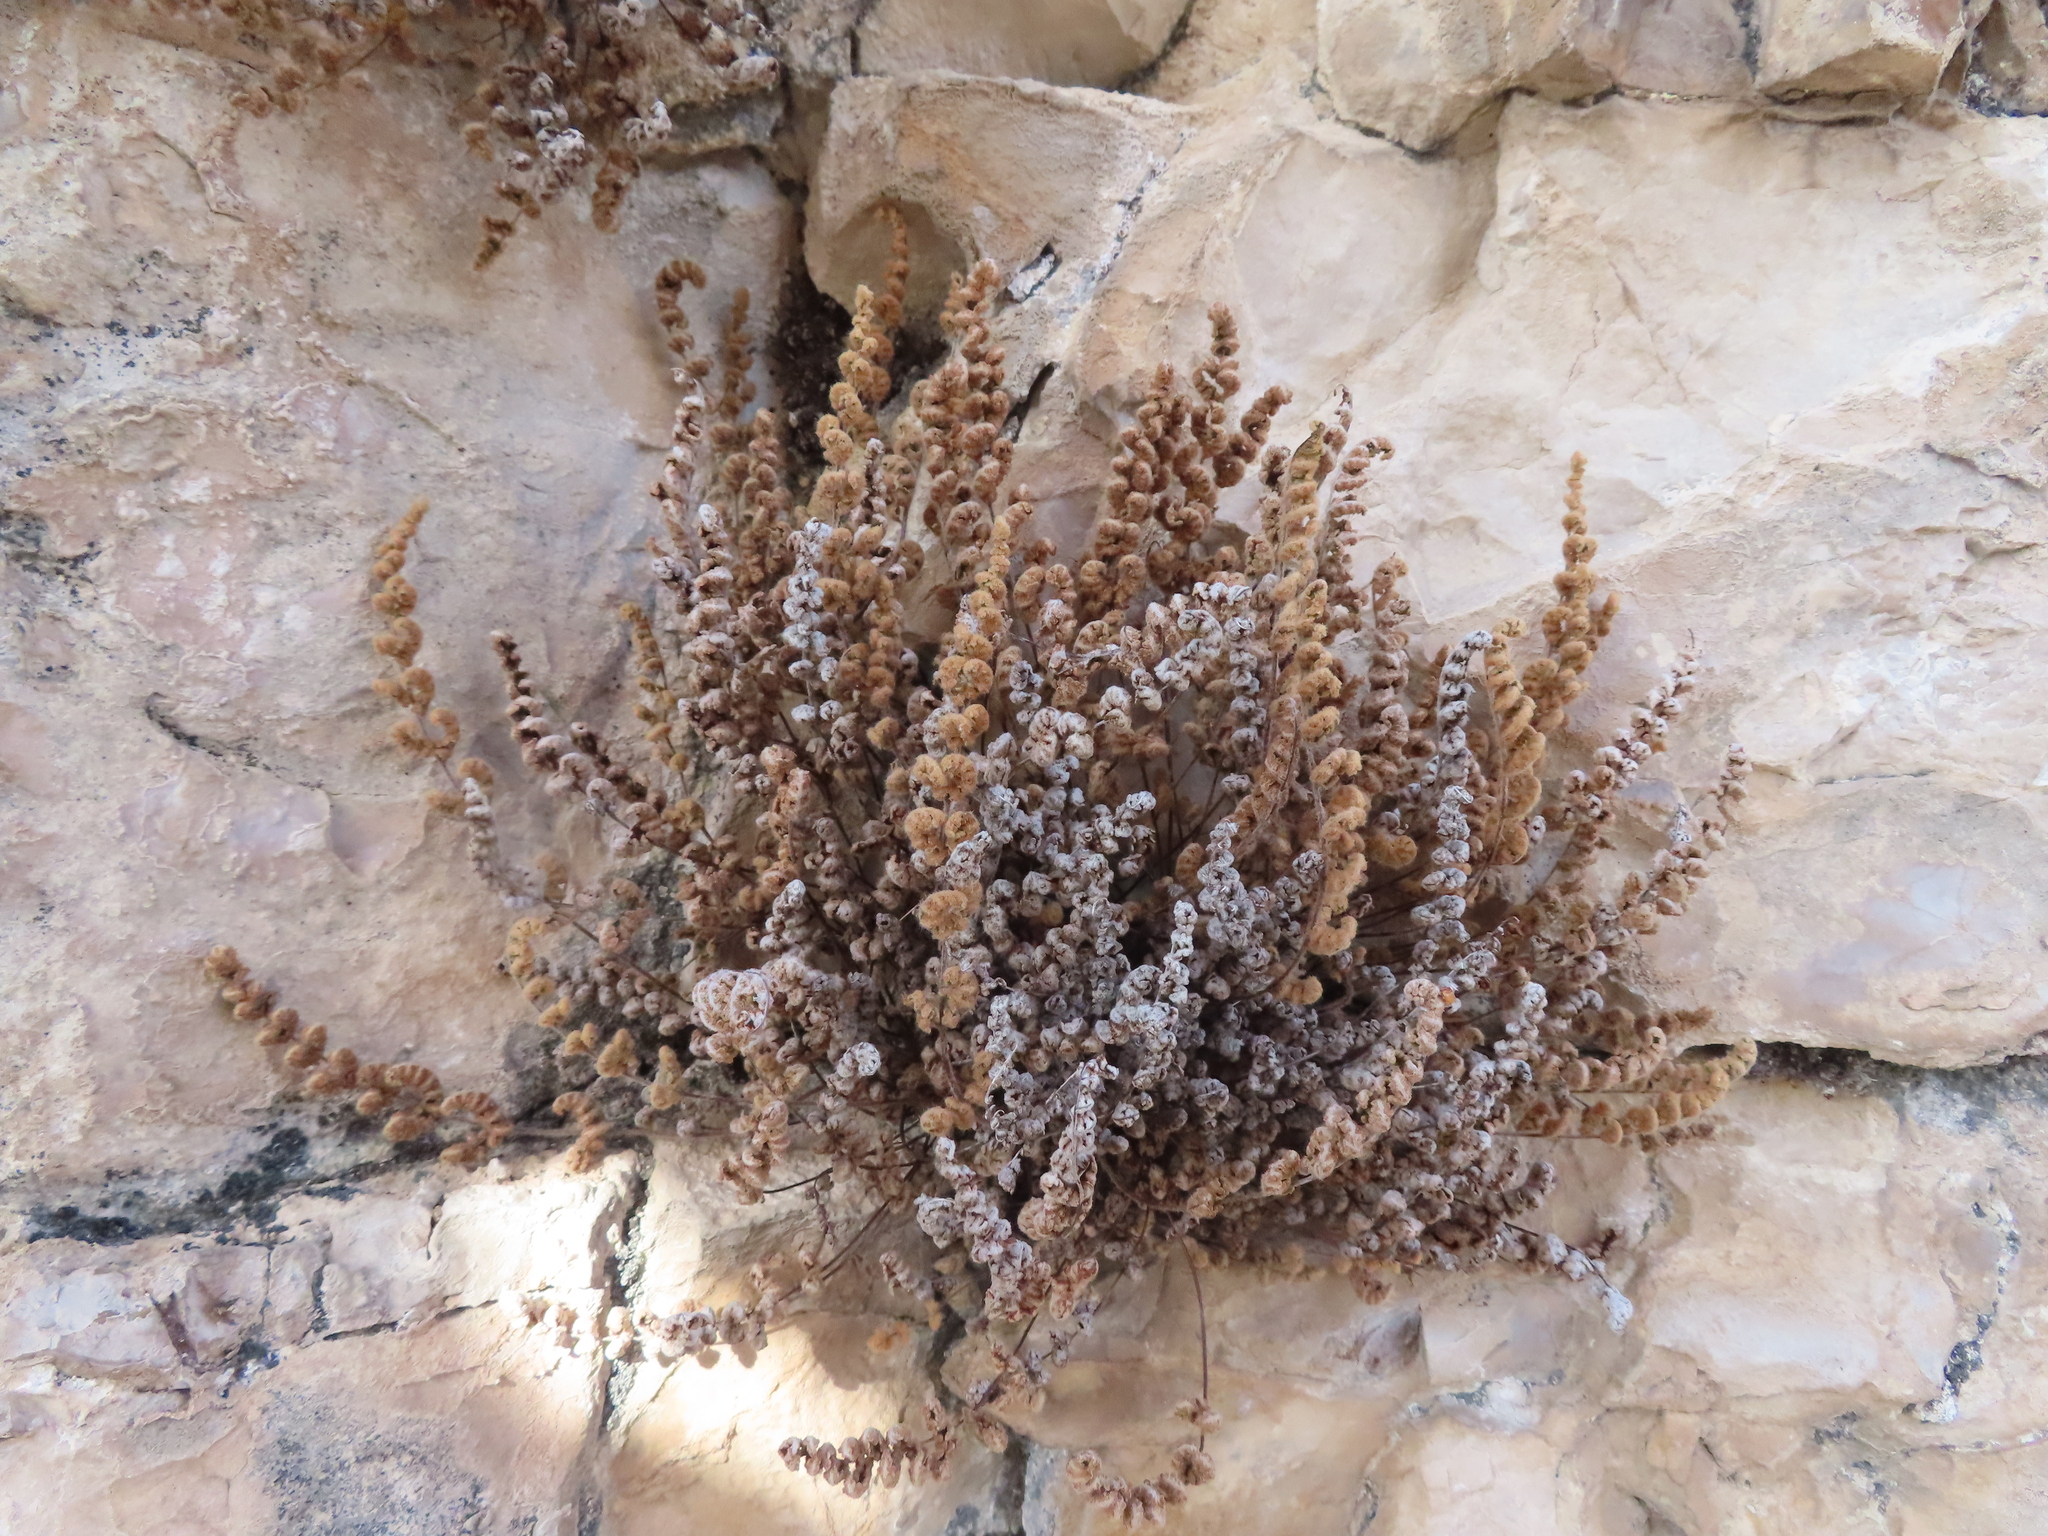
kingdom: Plantae
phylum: Tracheophyta
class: Polypodiopsida
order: Polypodiales
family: Pteridaceae
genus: Myriopteris
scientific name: Myriopteris gracilis
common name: Fee's lip fern
